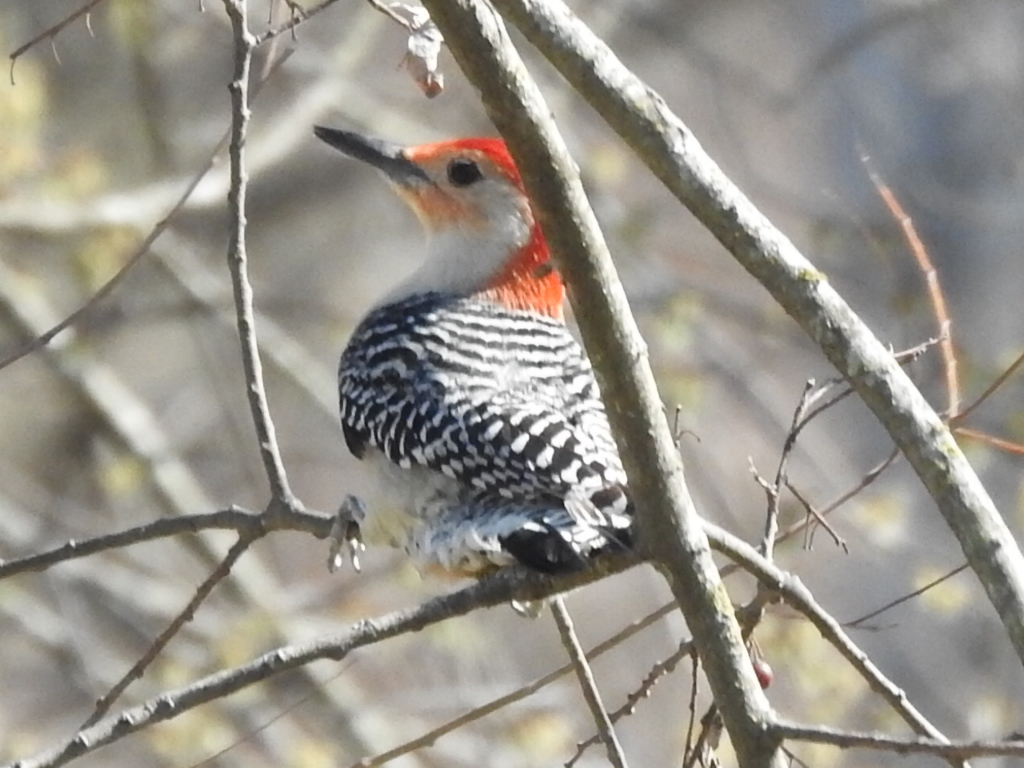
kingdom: Animalia
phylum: Chordata
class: Aves
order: Piciformes
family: Picidae
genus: Melanerpes
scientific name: Melanerpes carolinus
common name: Red-bellied woodpecker
